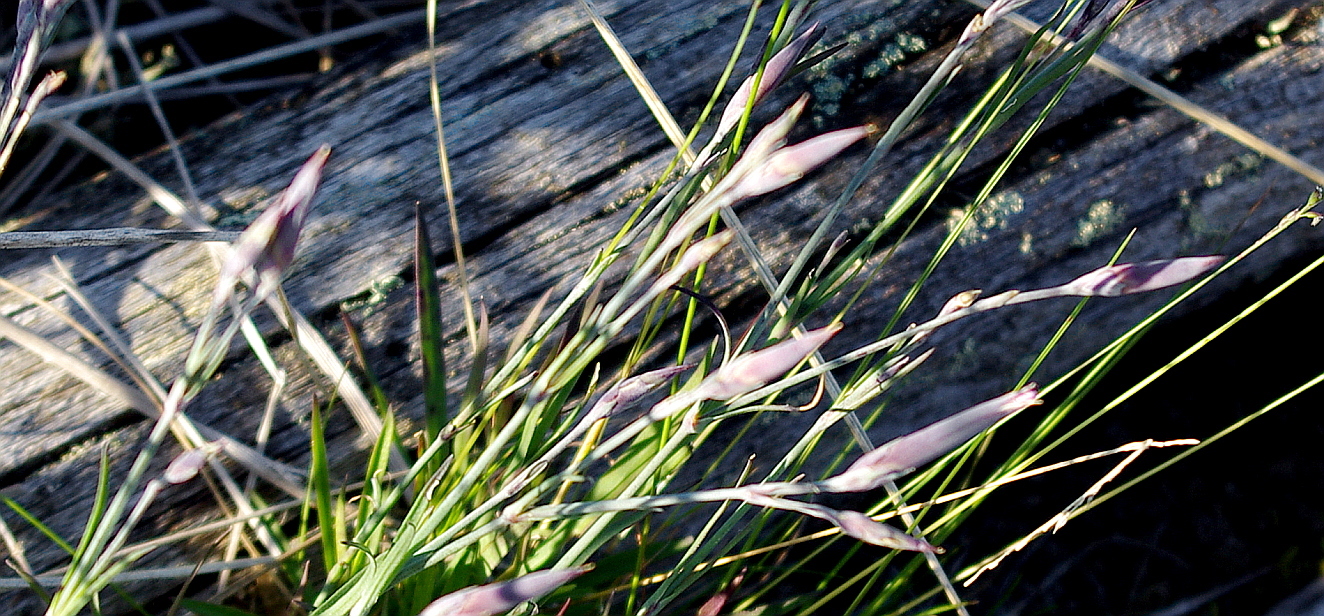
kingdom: Plantae
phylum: Tracheophyta
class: Magnoliopsida
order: Caryophyllales
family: Caryophyllaceae
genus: Dianthus
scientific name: Dianthus superbus
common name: Fringed pink
